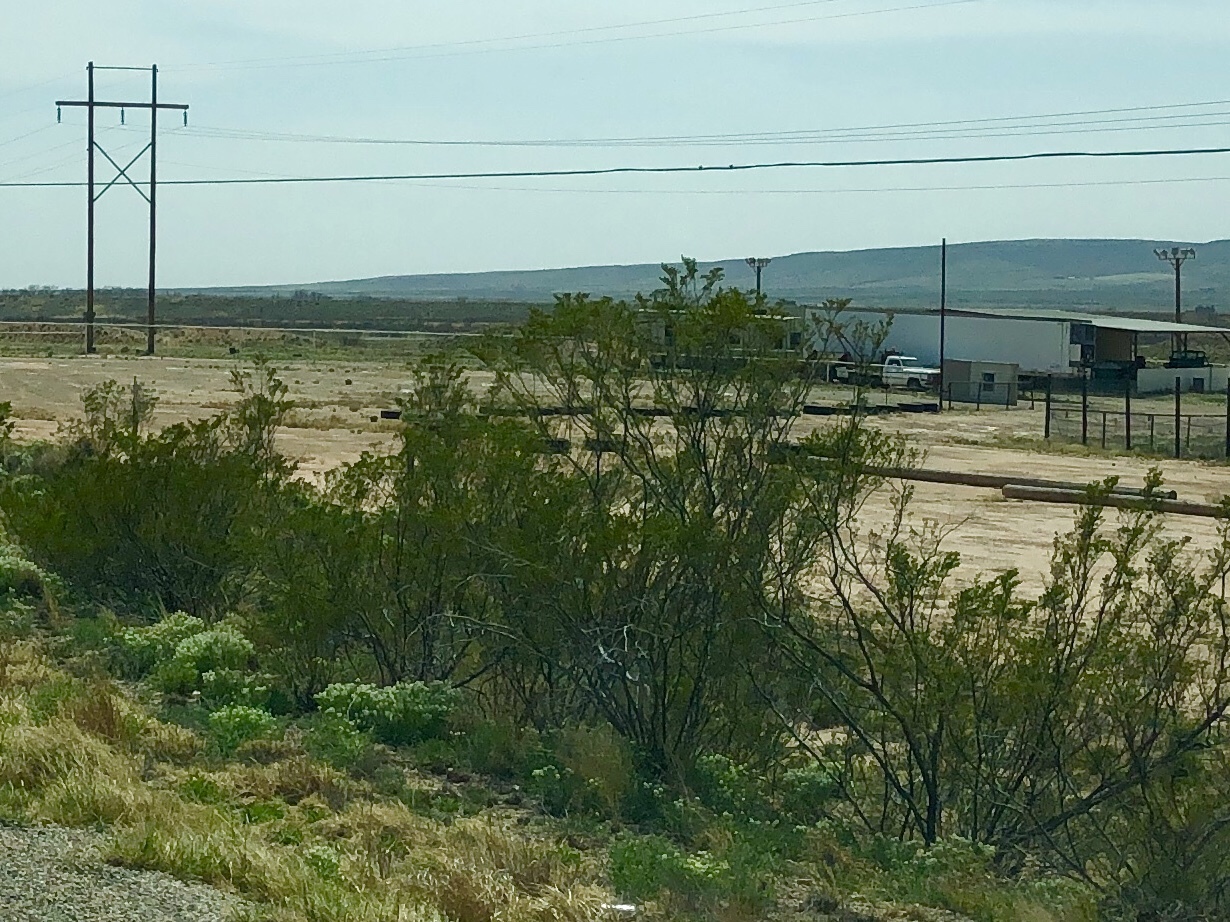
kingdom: Plantae
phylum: Tracheophyta
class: Magnoliopsida
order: Zygophyllales
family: Zygophyllaceae
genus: Larrea
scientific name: Larrea tridentata
